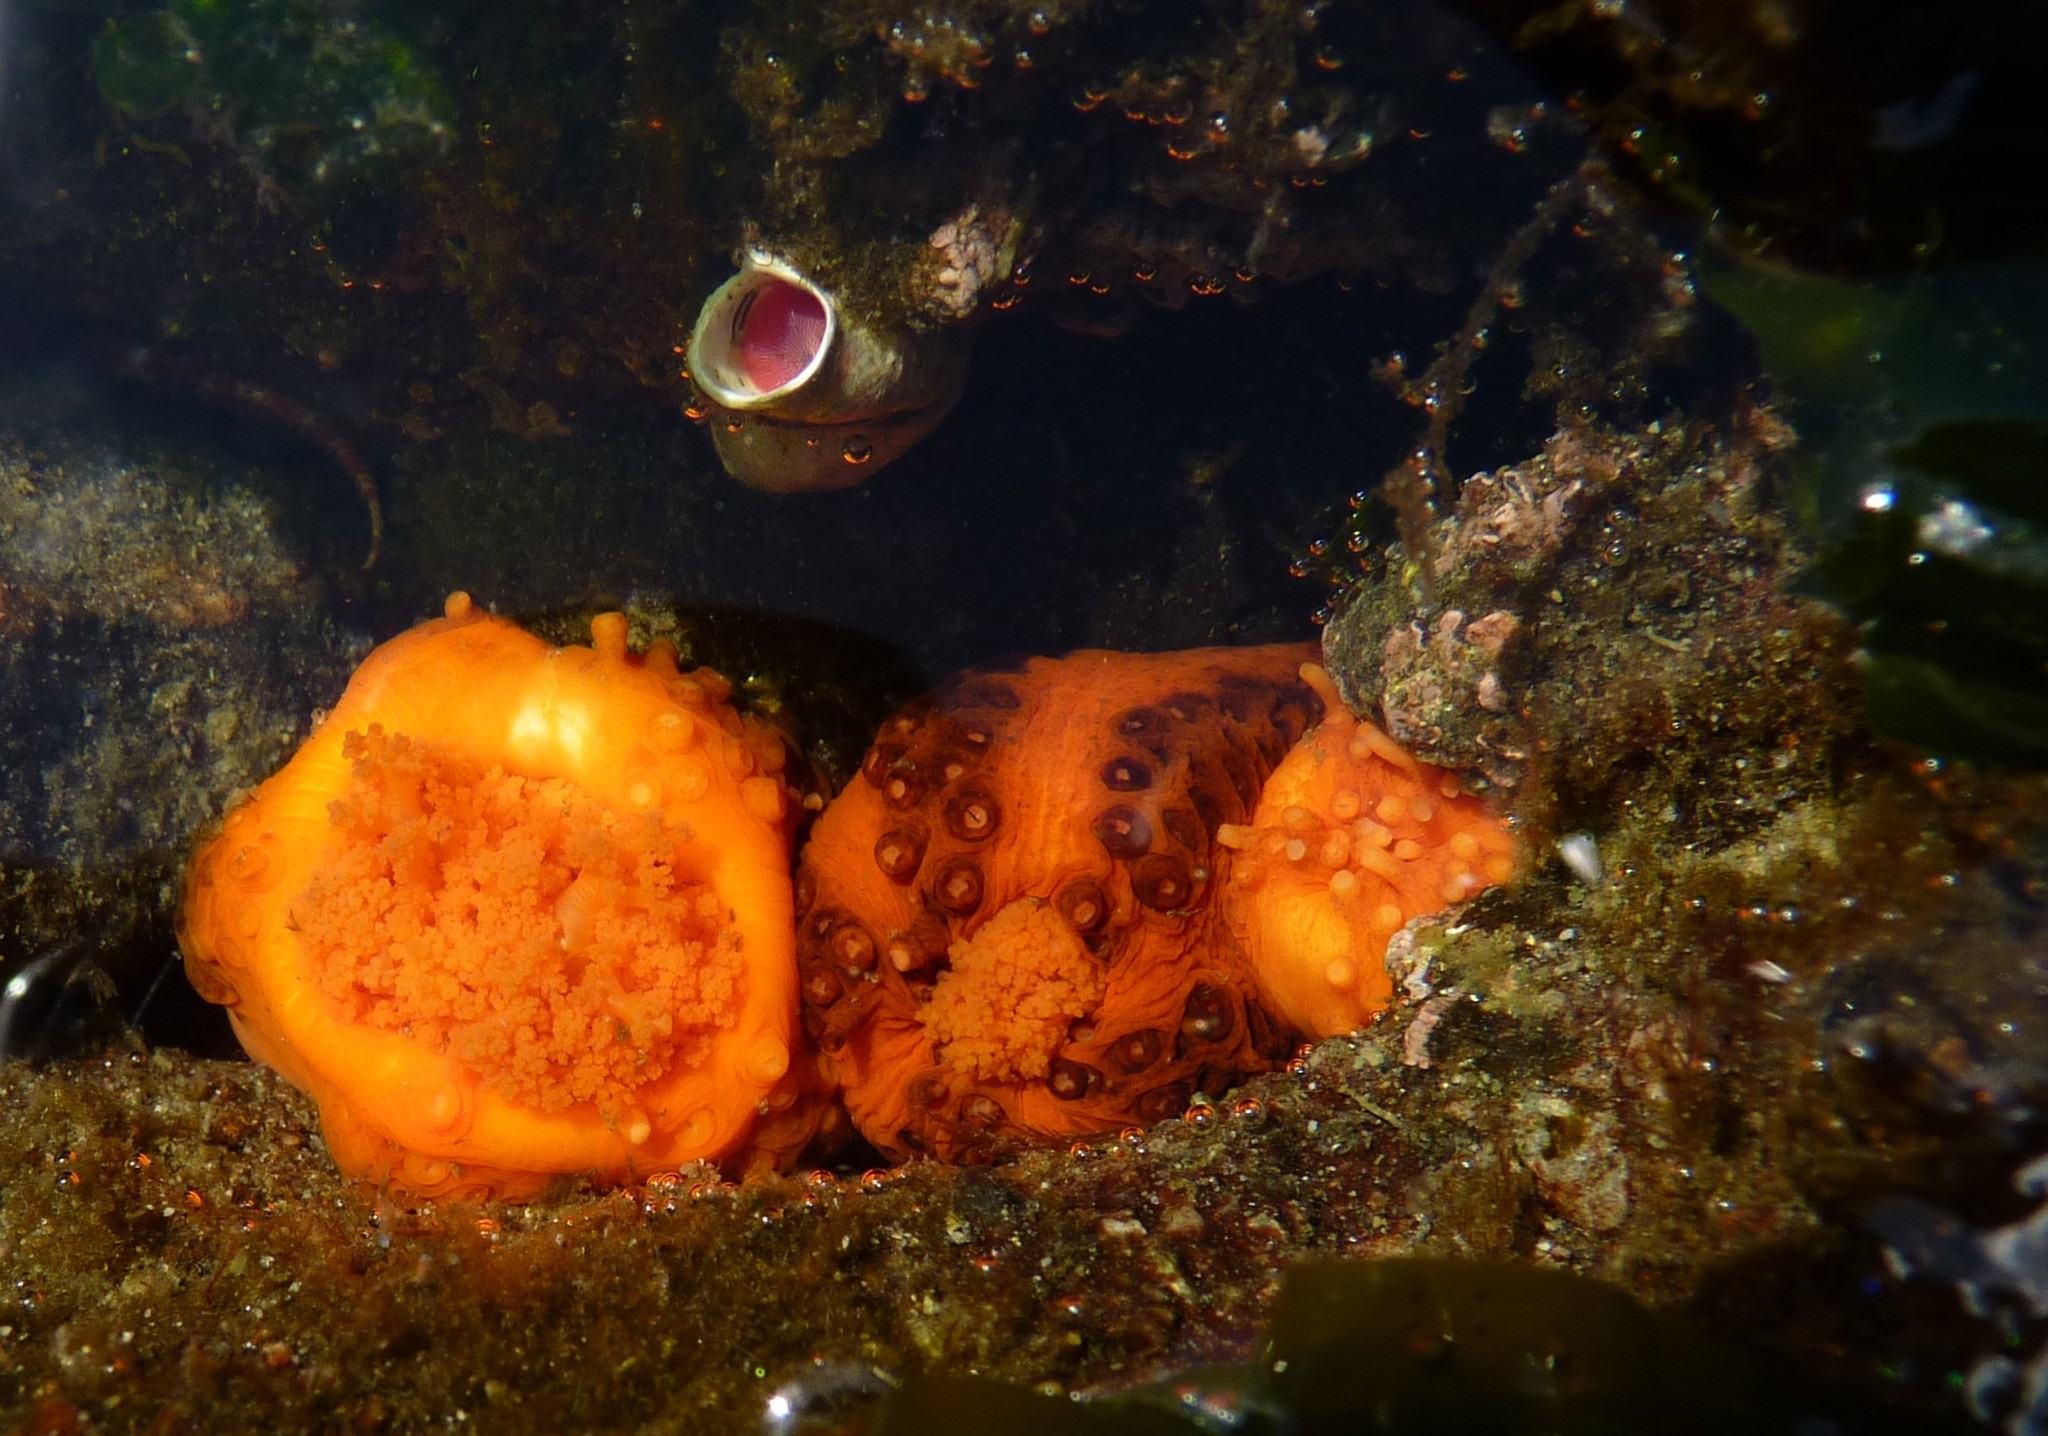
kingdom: Animalia
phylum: Echinodermata
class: Holothuroidea
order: Dendrochirotida
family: Cucumariidae
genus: Cucumaria
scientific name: Cucumaria miniata
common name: Orange sea cucumber
